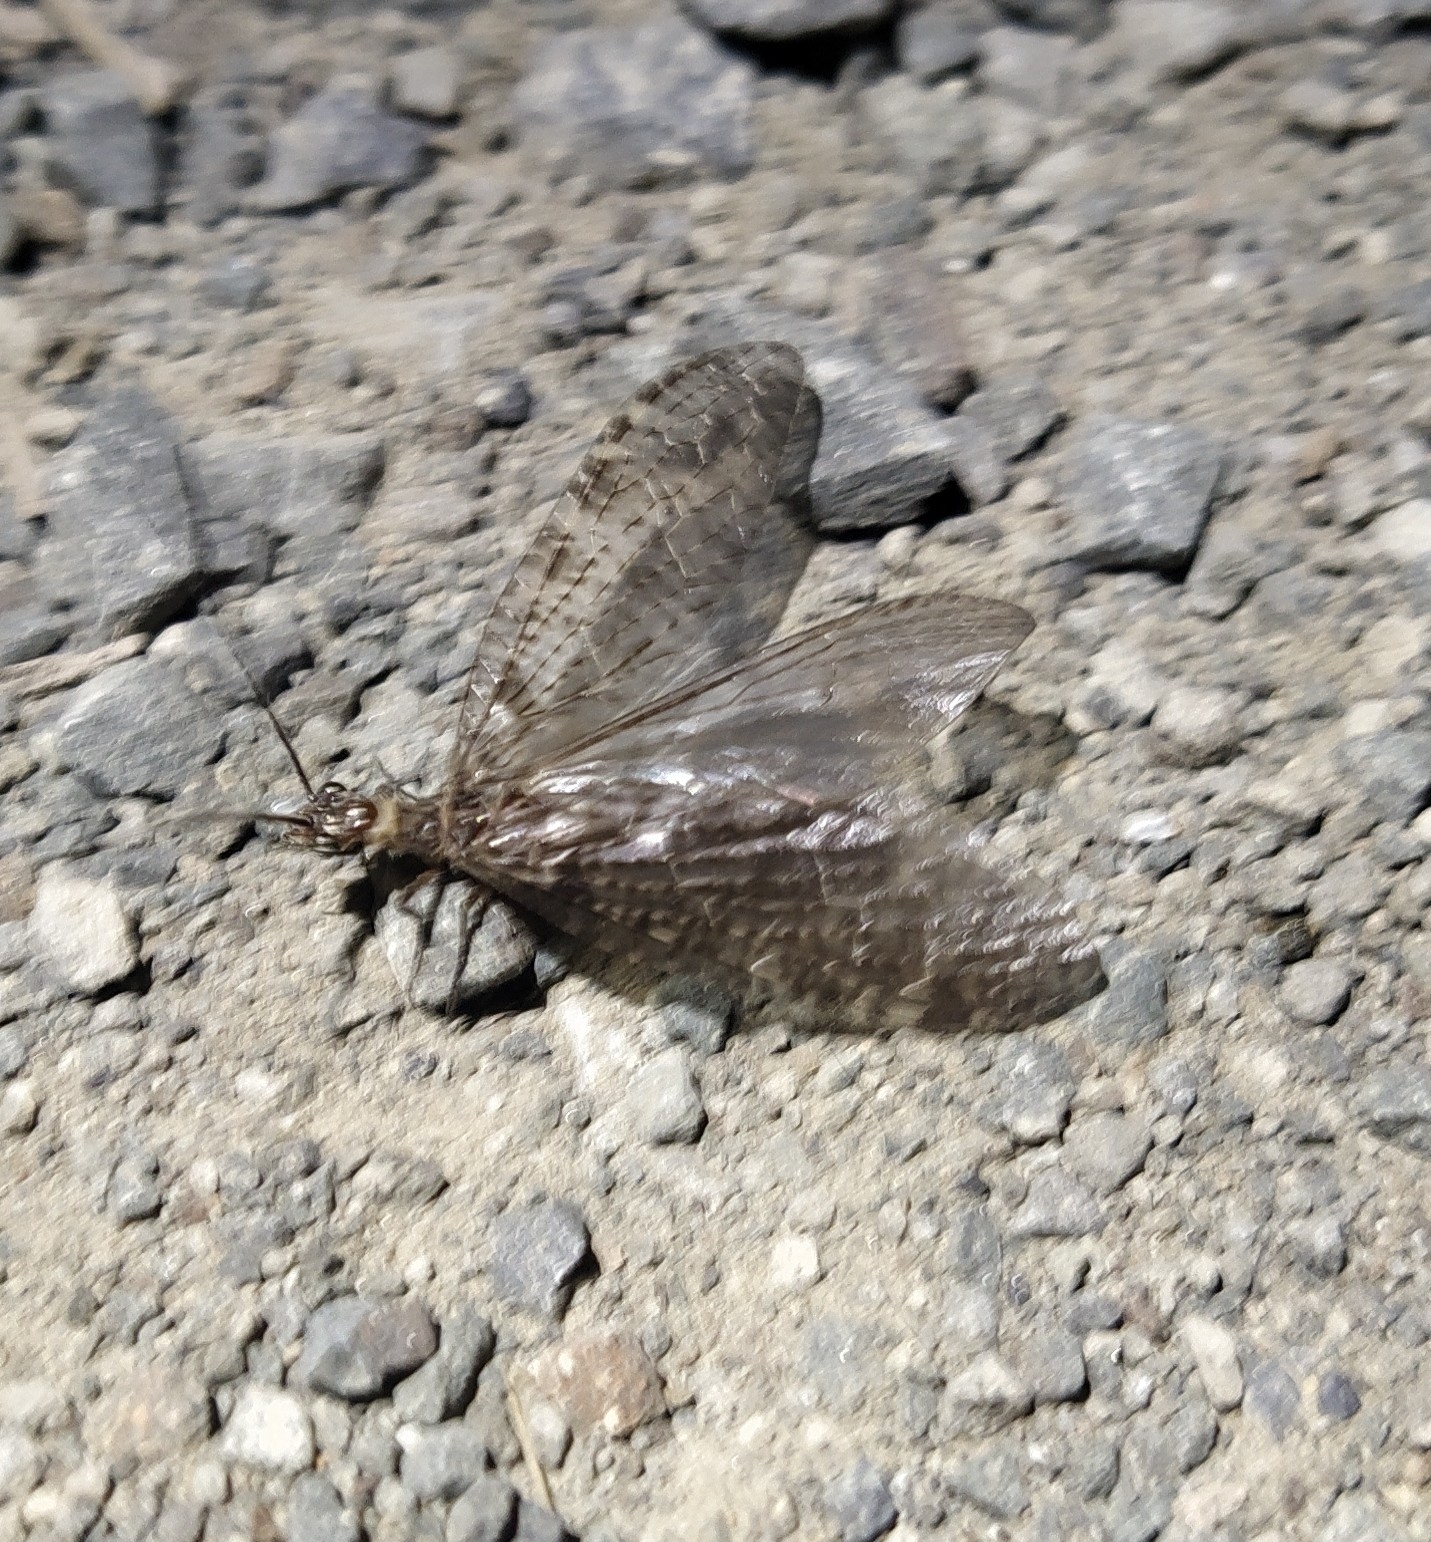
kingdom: Animalia
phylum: Arthropoda
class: Insecta
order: Megaloptera
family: Corydalidae
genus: Archichauliodes
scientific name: Archichauliodes diversus
